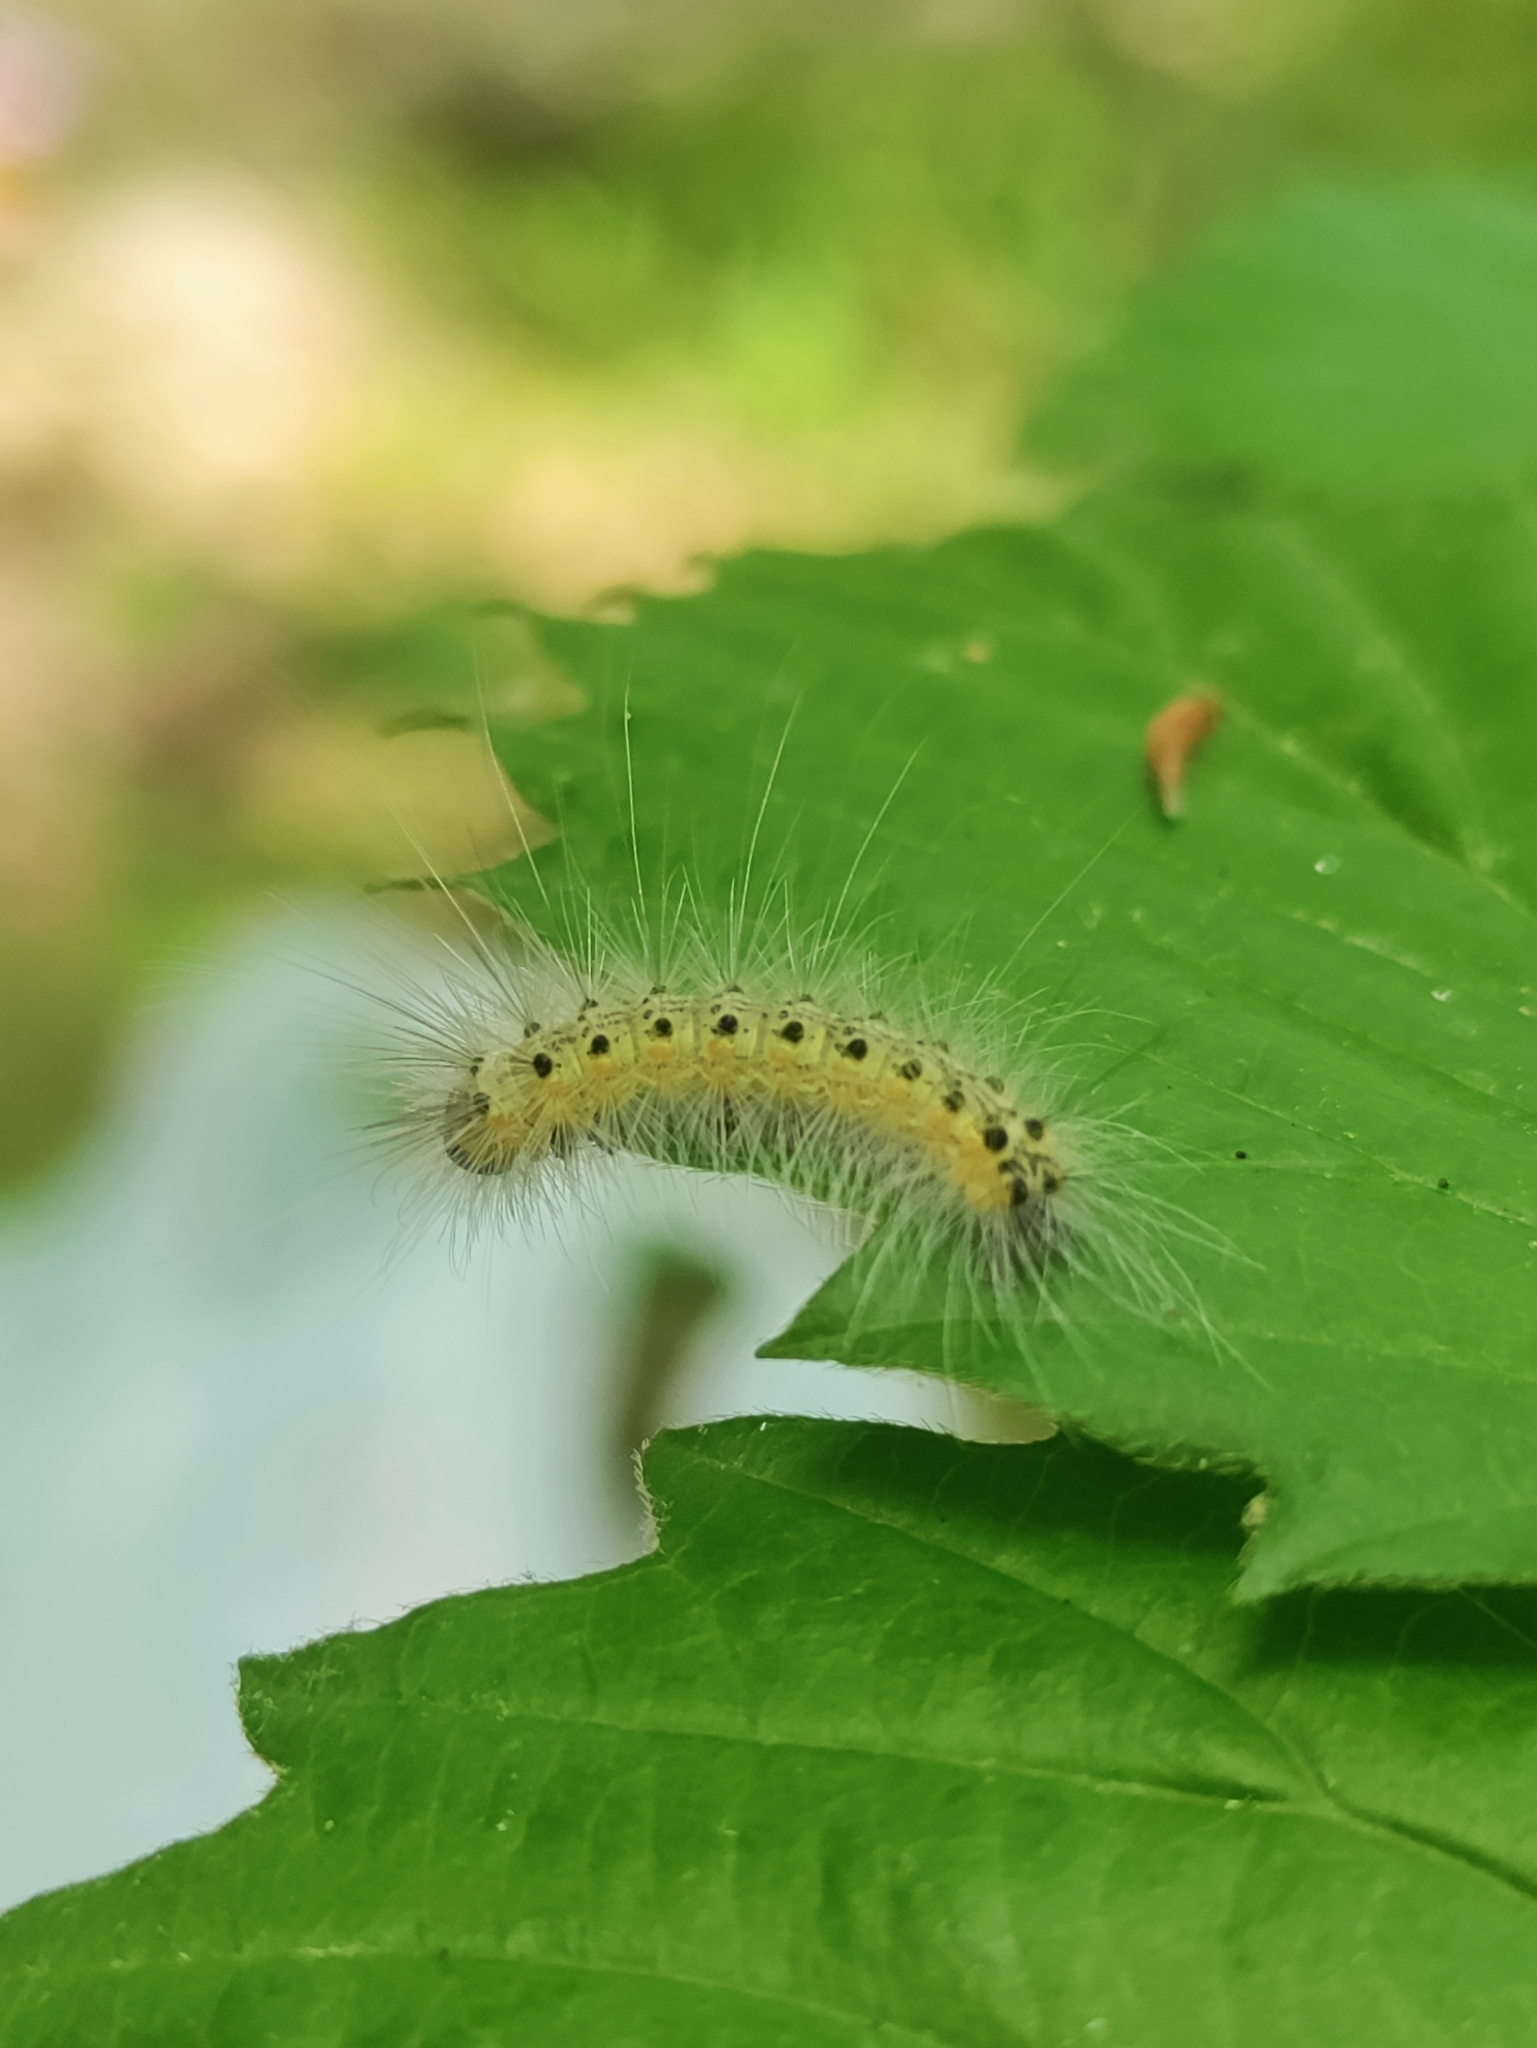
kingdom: Animalia
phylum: Arthropoda
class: Insecta
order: Lepidoptera
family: Erebidae
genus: Hyphantria
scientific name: Hyphantria cunea
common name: American white moth
